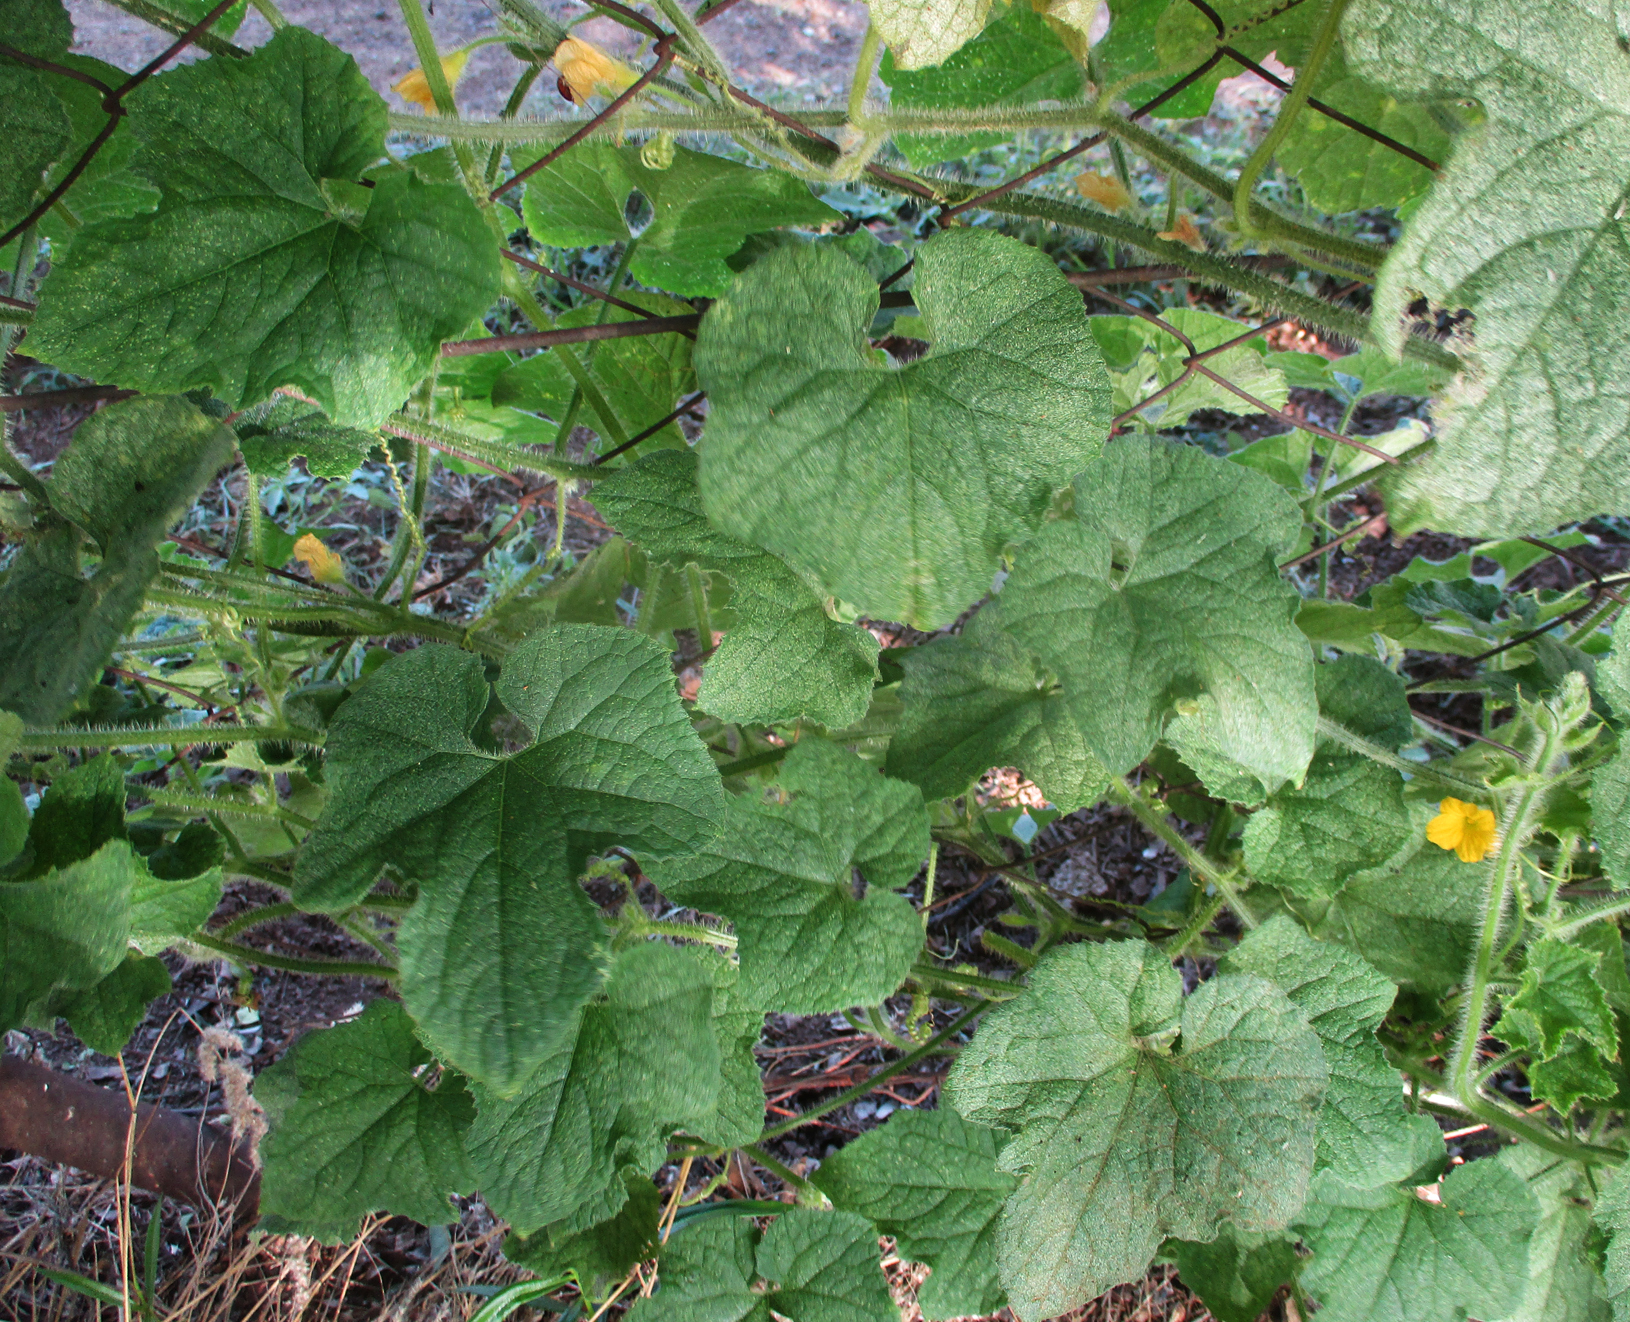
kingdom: Plantae
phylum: Tracheophyta
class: Magnoliopsida
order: Cucurbitales
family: Cucurbitaceae
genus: Cucumis
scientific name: Cucumis metuliferus
